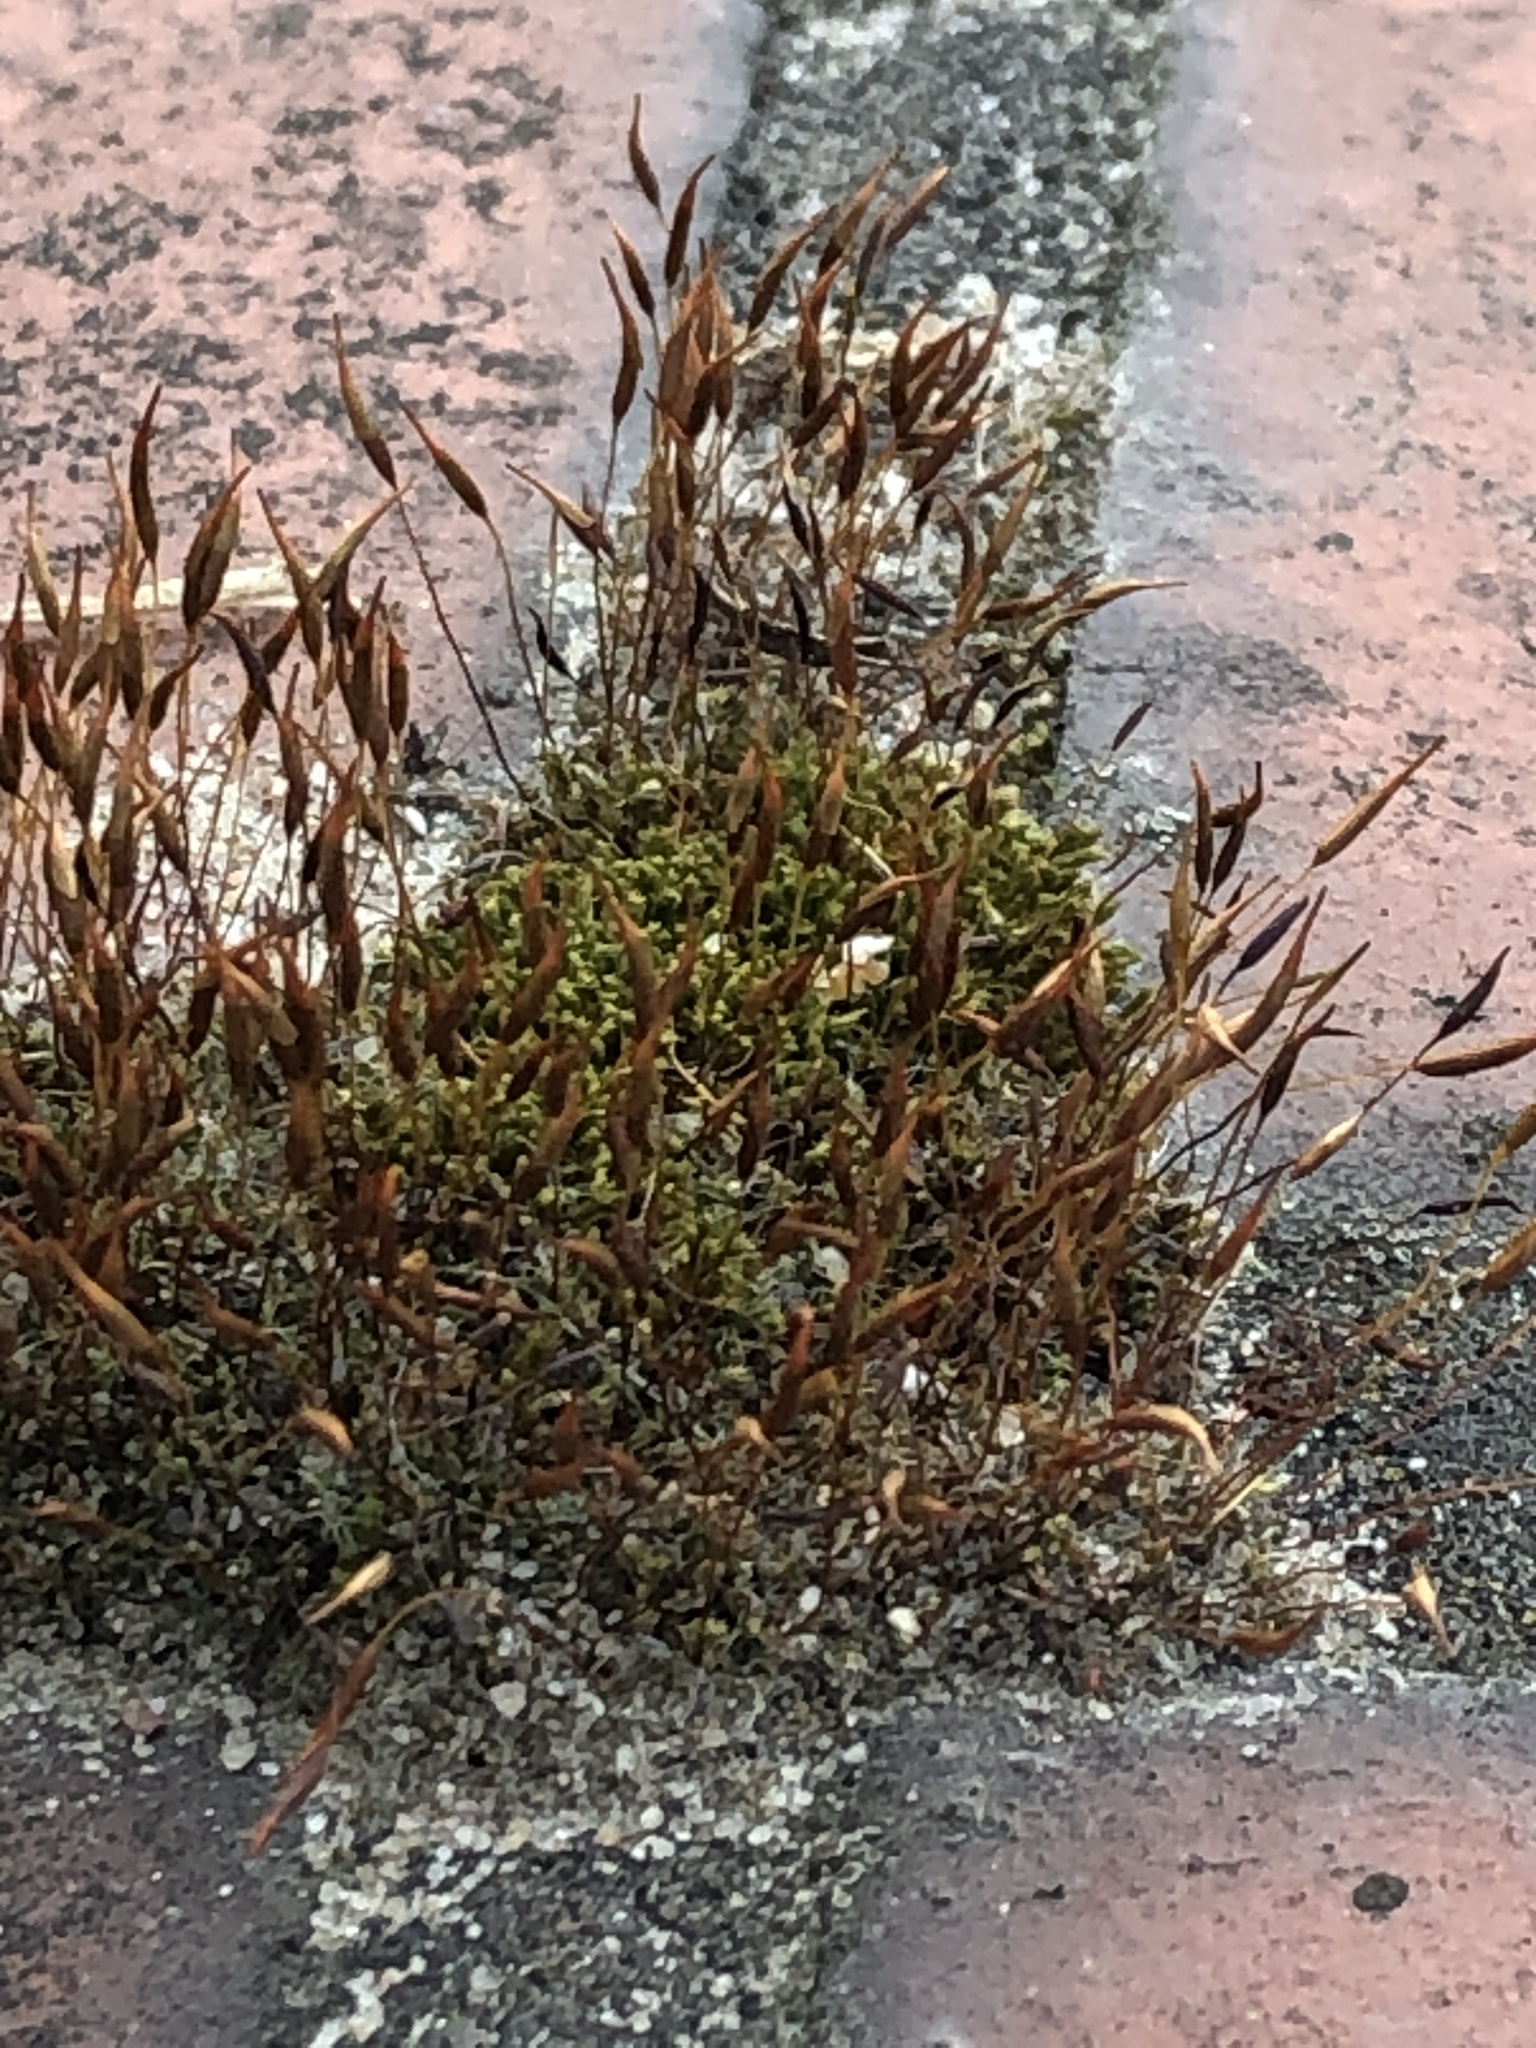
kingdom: Plantae
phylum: Bryophyta
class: Bryopsida
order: Pottiales
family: Pottiaceae
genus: Tortula
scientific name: Tortula muralis
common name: Wall screw-moss
